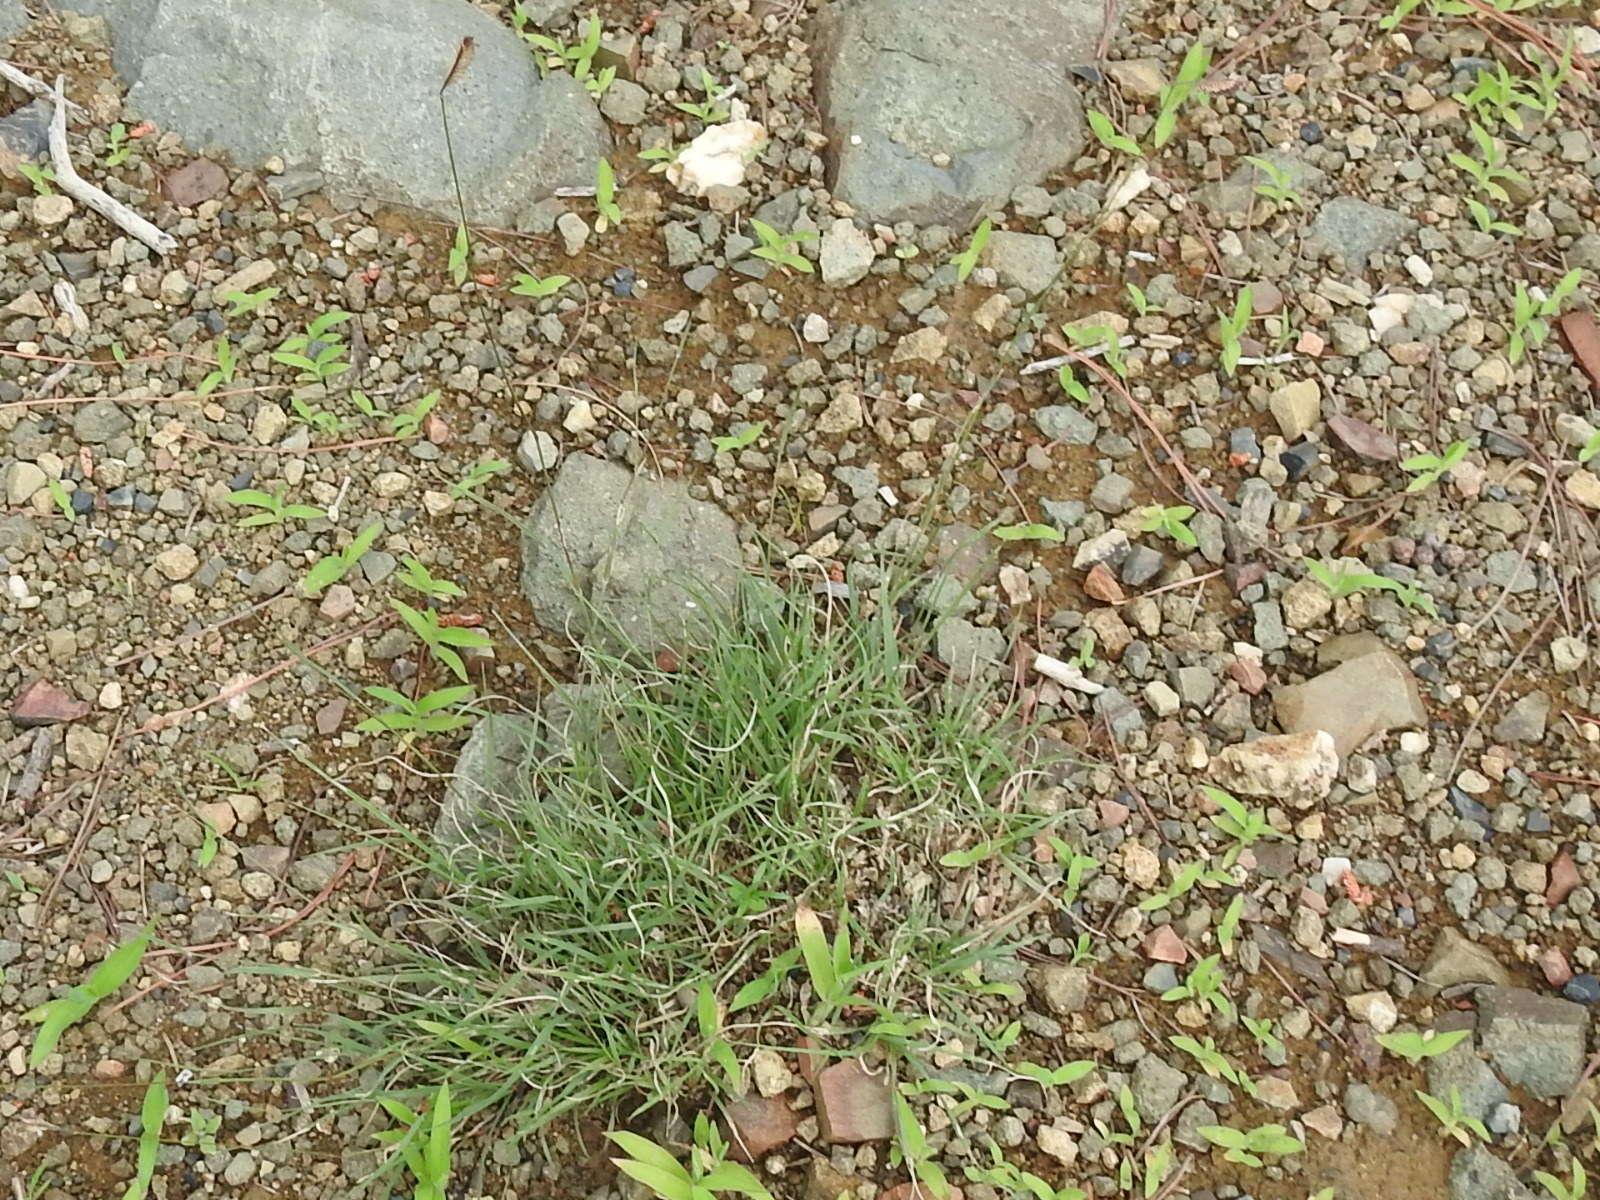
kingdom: Plantae
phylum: Tracheophyta
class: Liliopsida
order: Poales
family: Poaceae
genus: Bouteloua
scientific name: Bouteloua gracilis
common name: Blue grama
